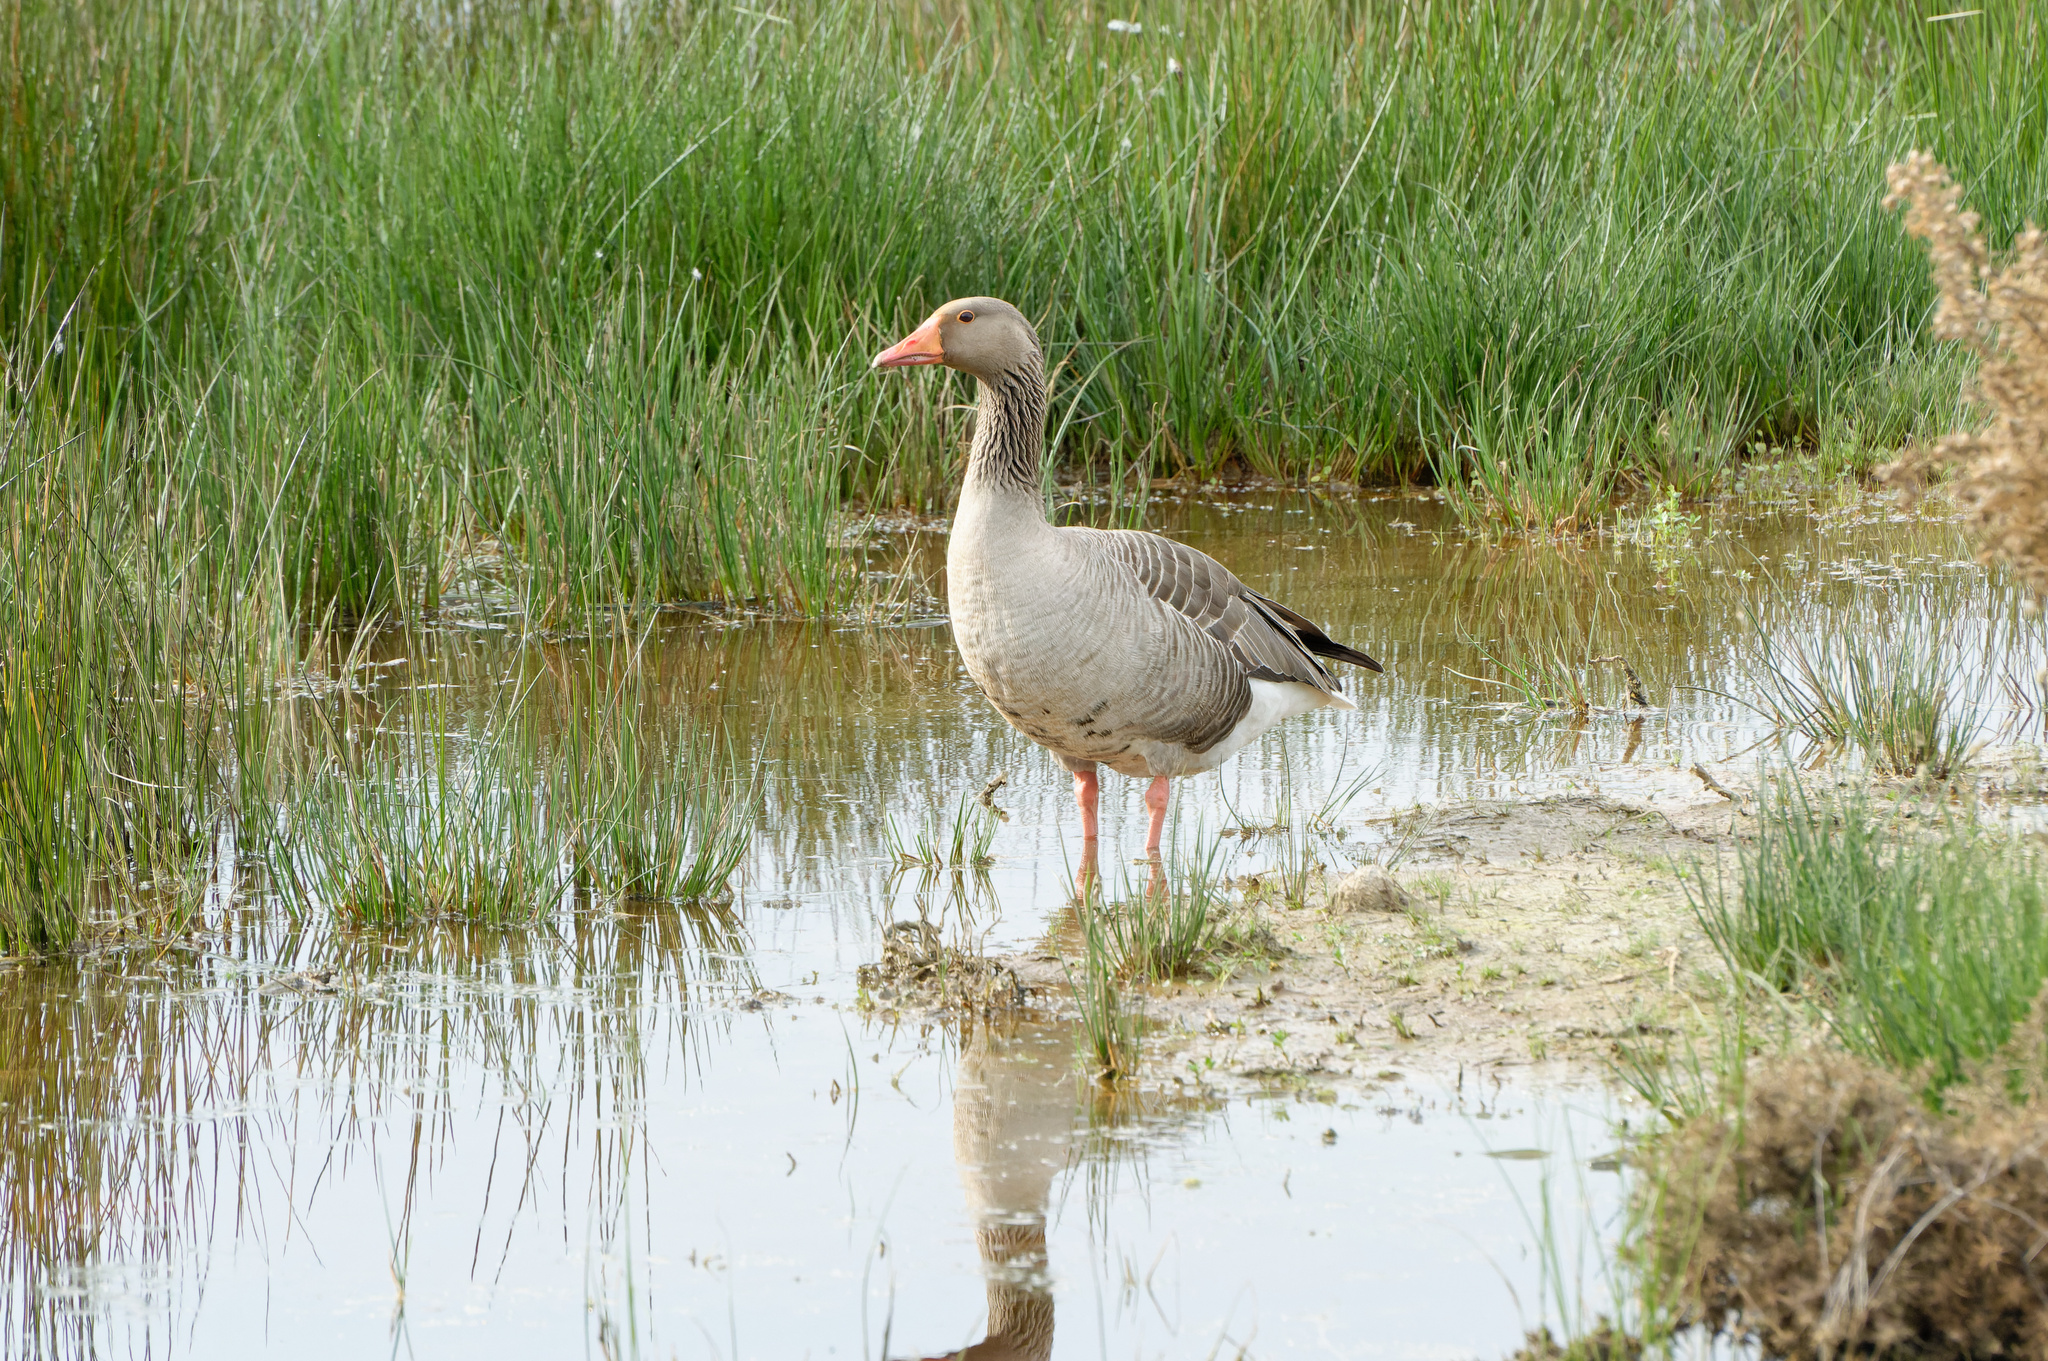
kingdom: Animalia
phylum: Chordata
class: Aves
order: Anseriformes
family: Anatidae
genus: Anser
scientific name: Anser anser
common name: Greylag goose
